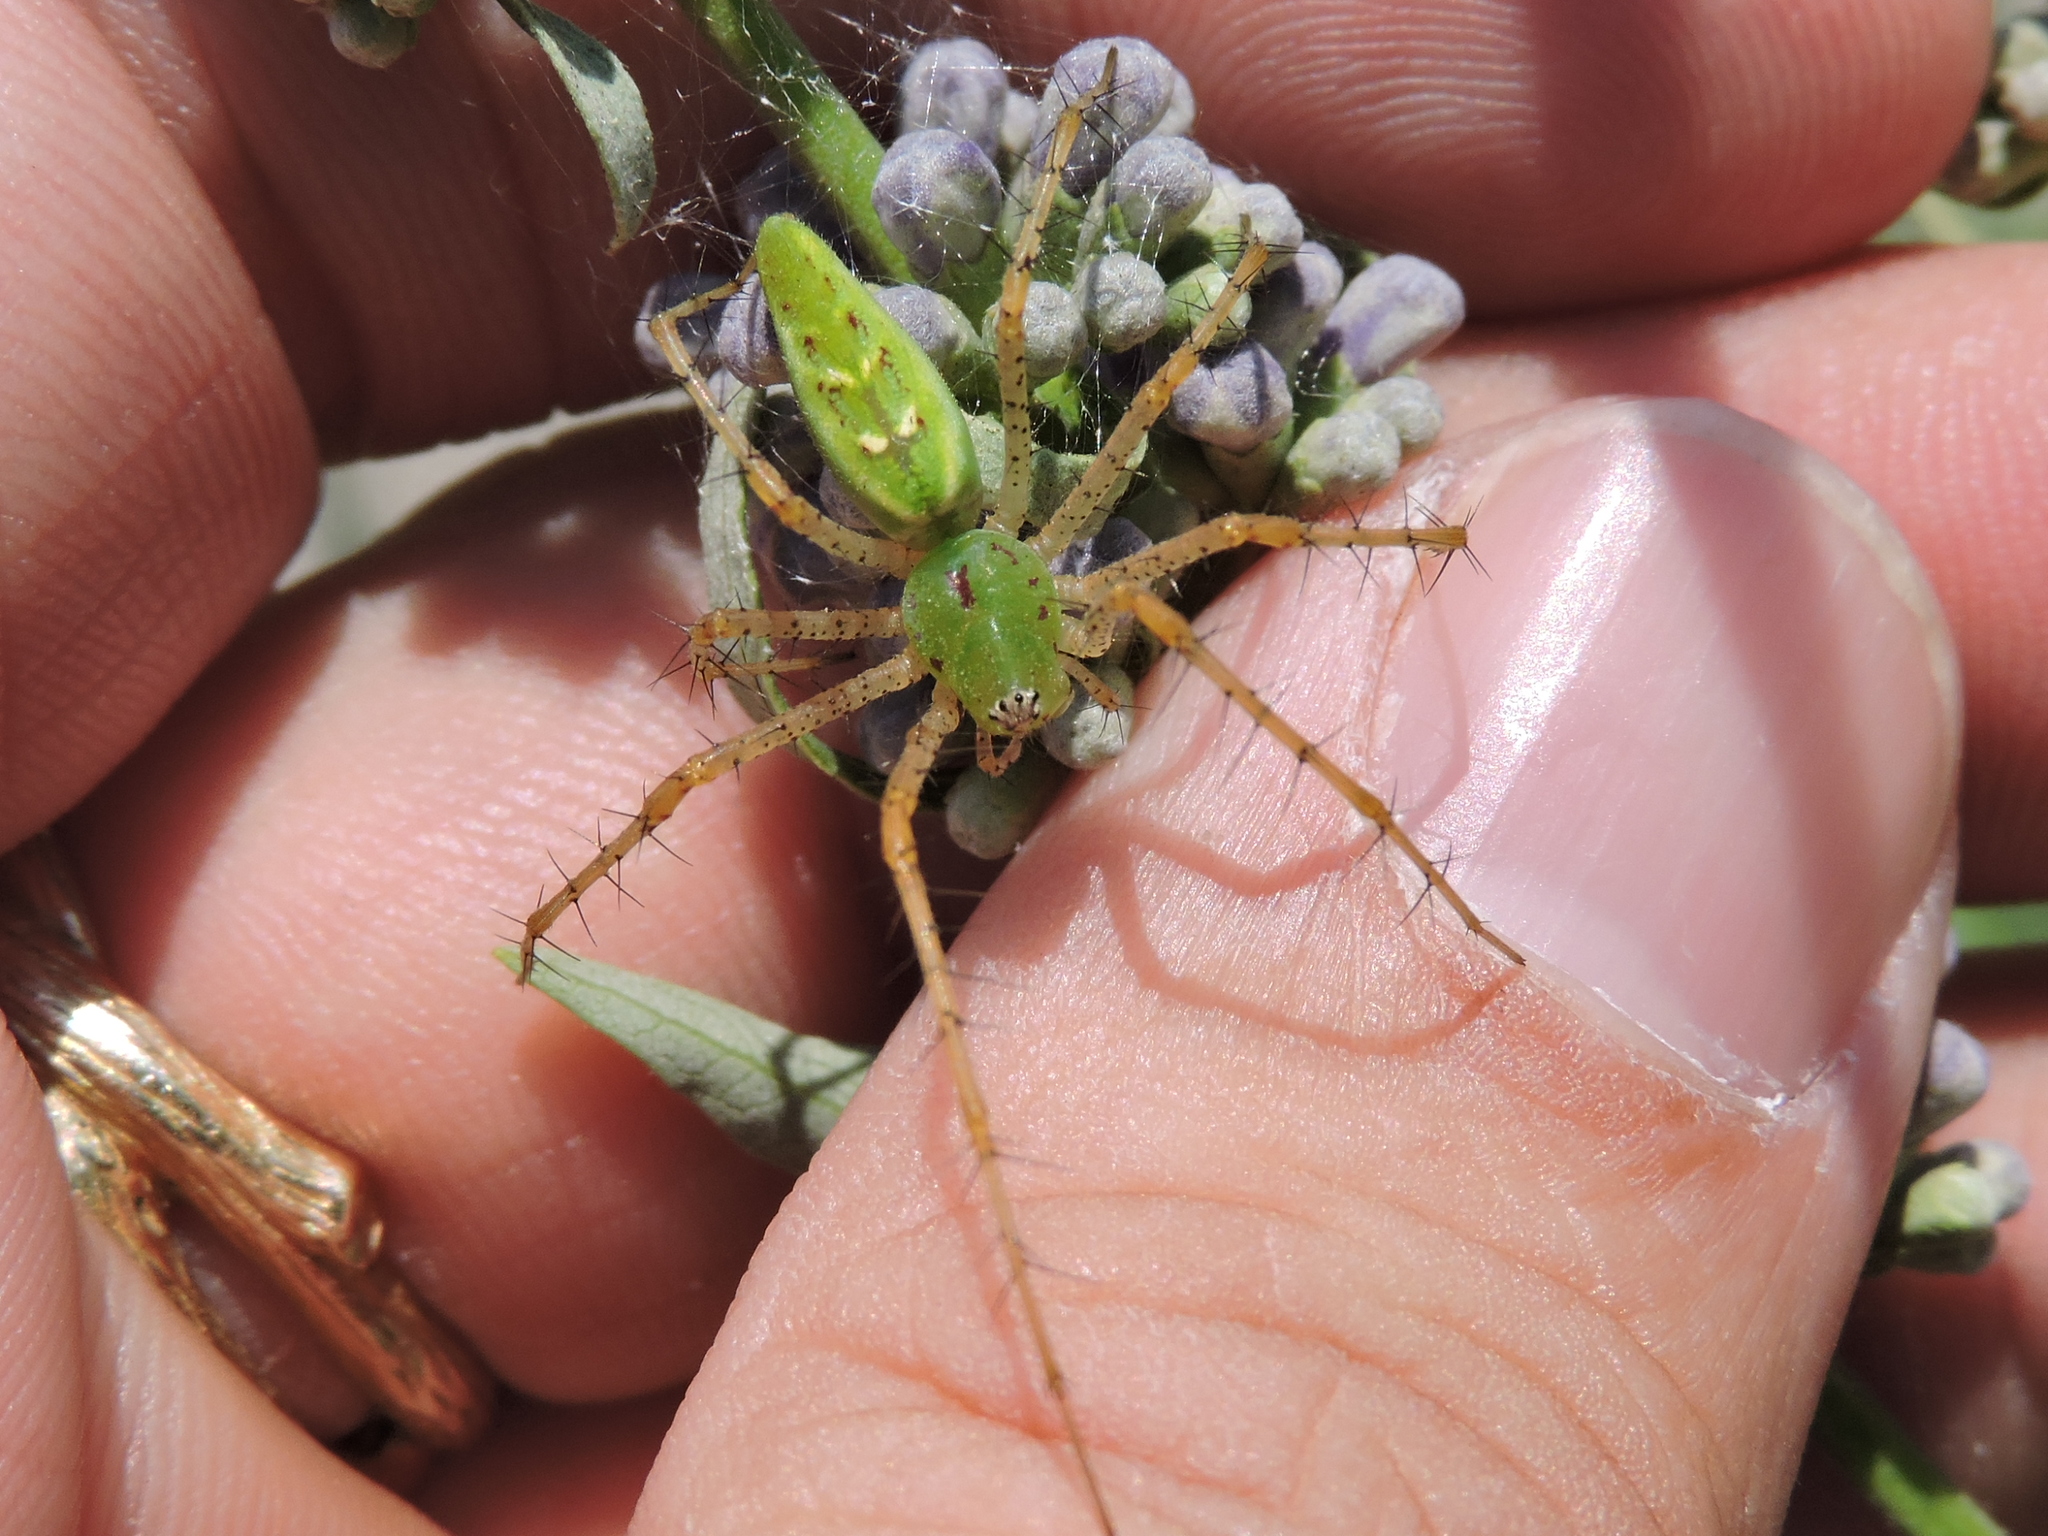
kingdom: Animalia
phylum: Arthropoda
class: Arachnida
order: Araneae
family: Oxyopidae
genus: Peucetia
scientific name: Peucetia viridans
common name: Lynx spiders
